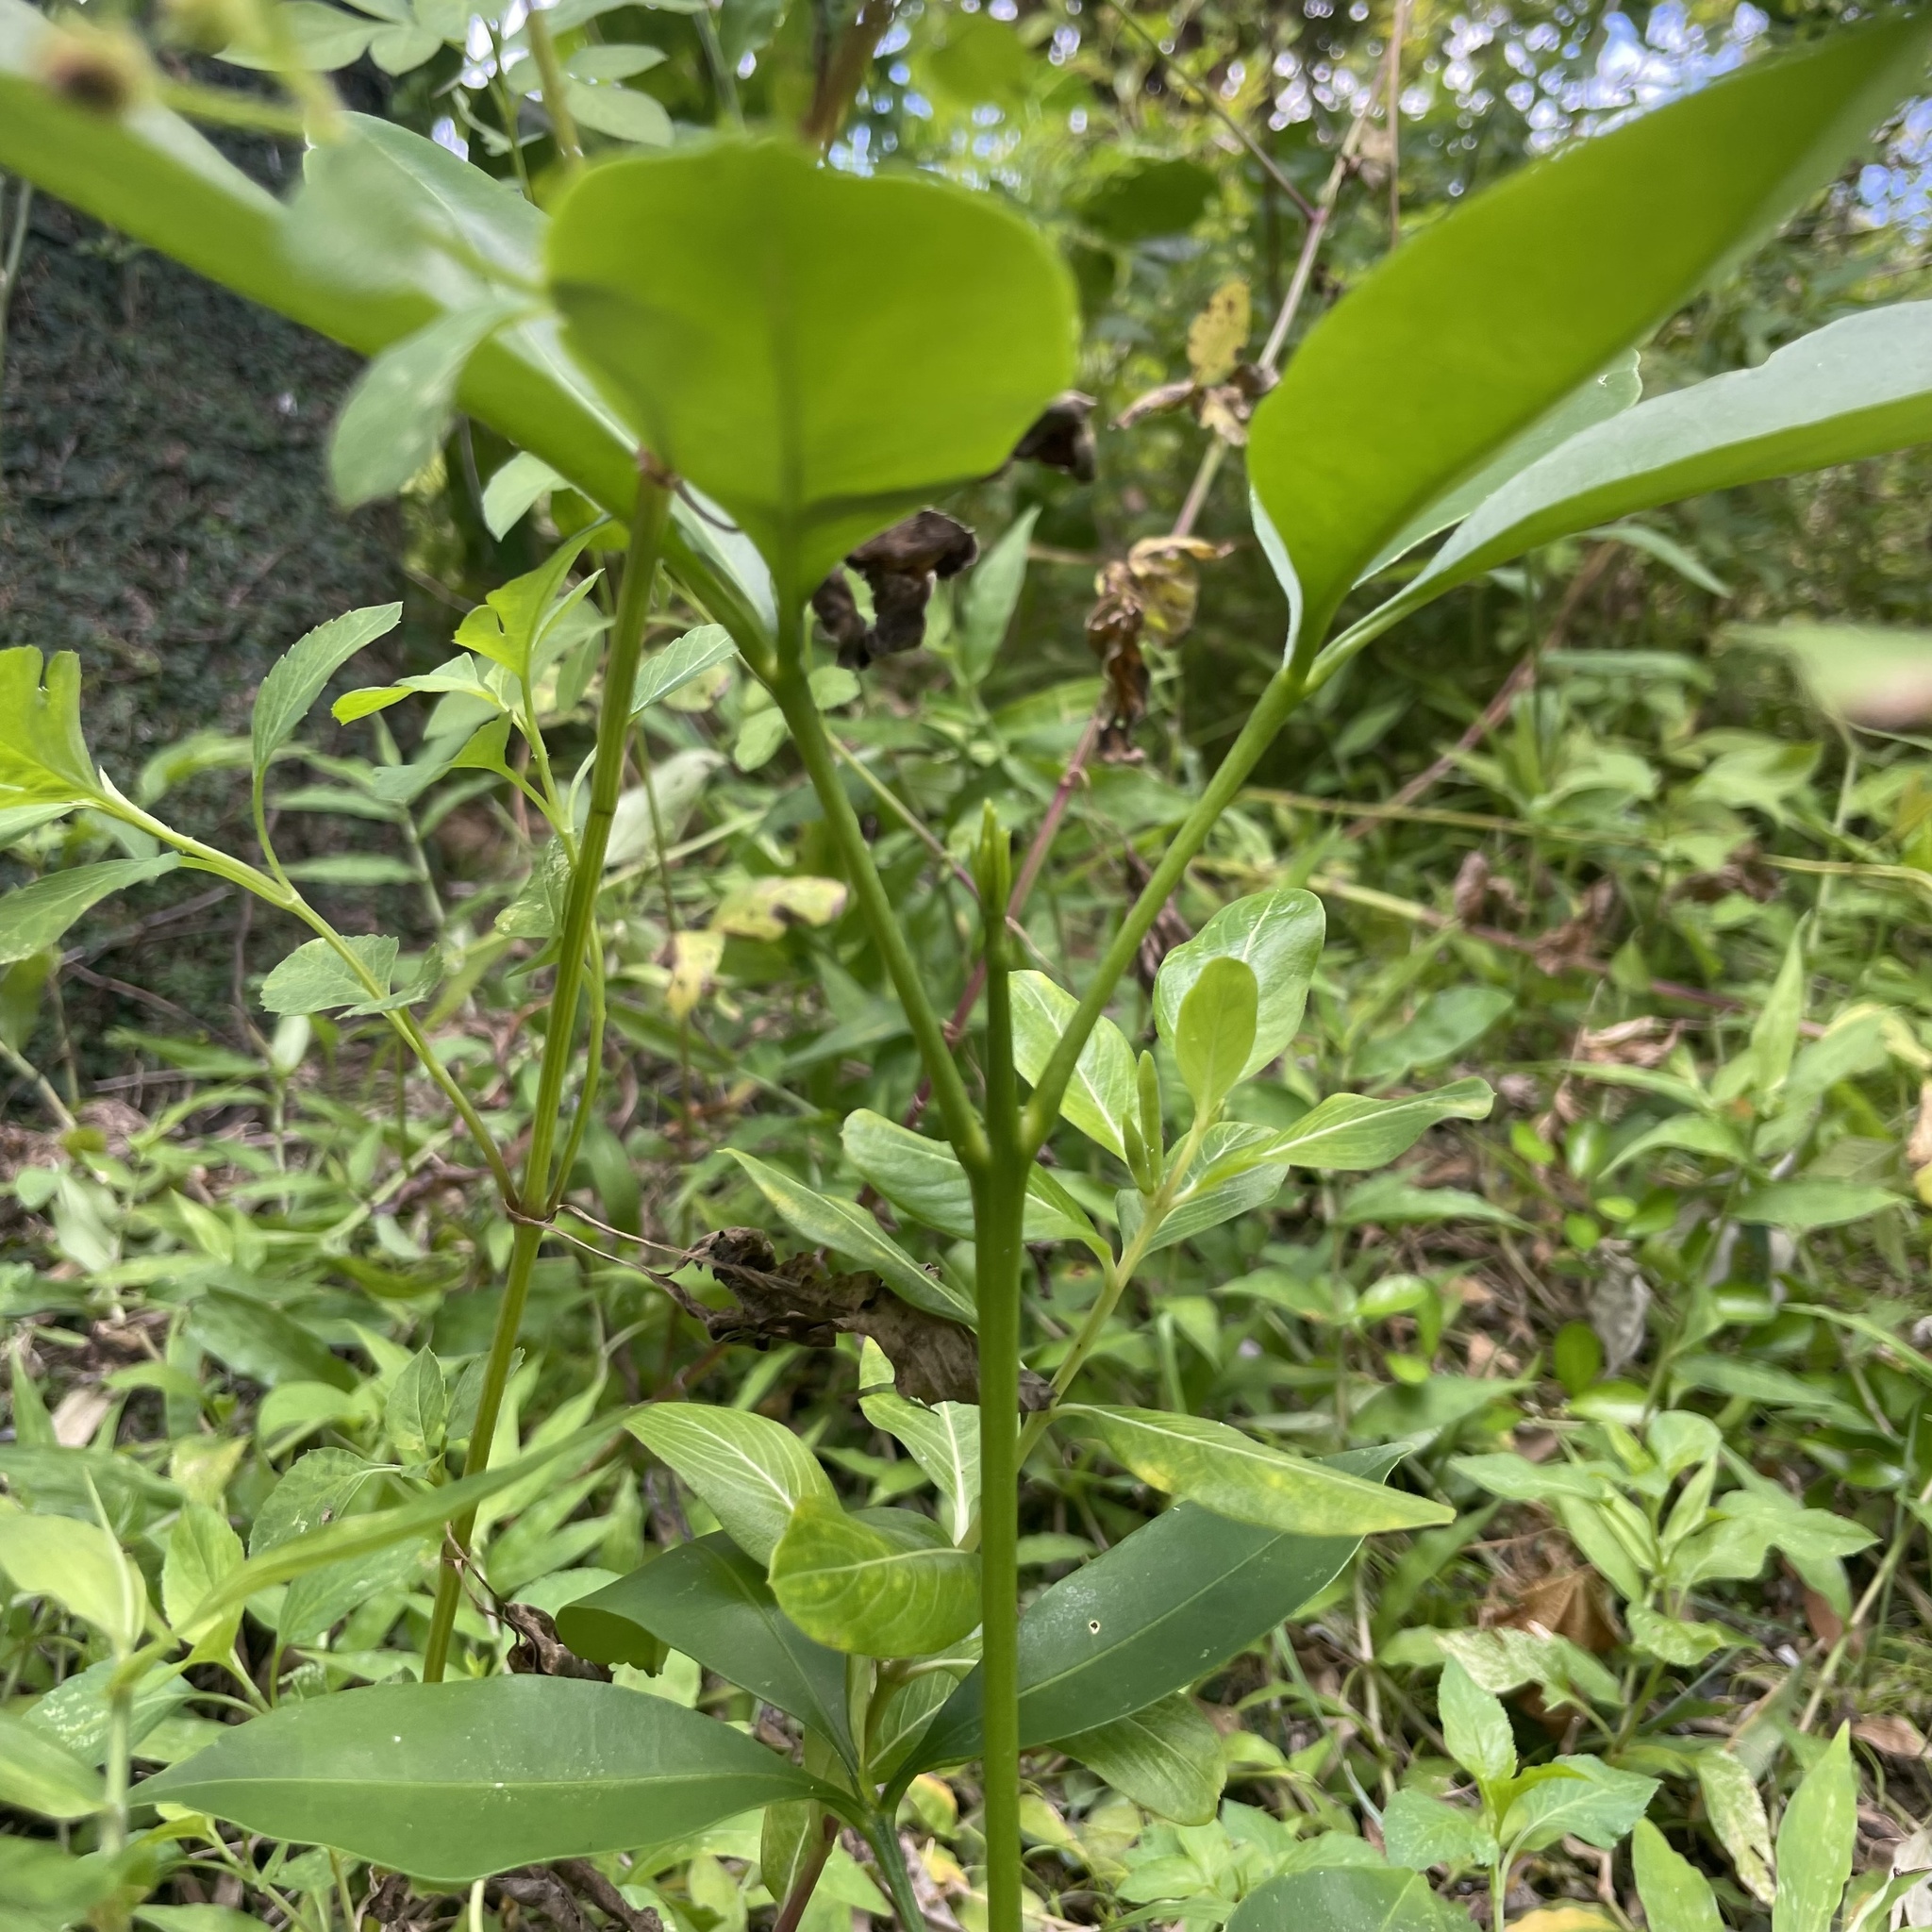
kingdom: Plantae
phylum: Tracheophyta
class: Magnoliopsida
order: Sapindales
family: Rutaceae
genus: Melicope
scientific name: Melicope triphylla
